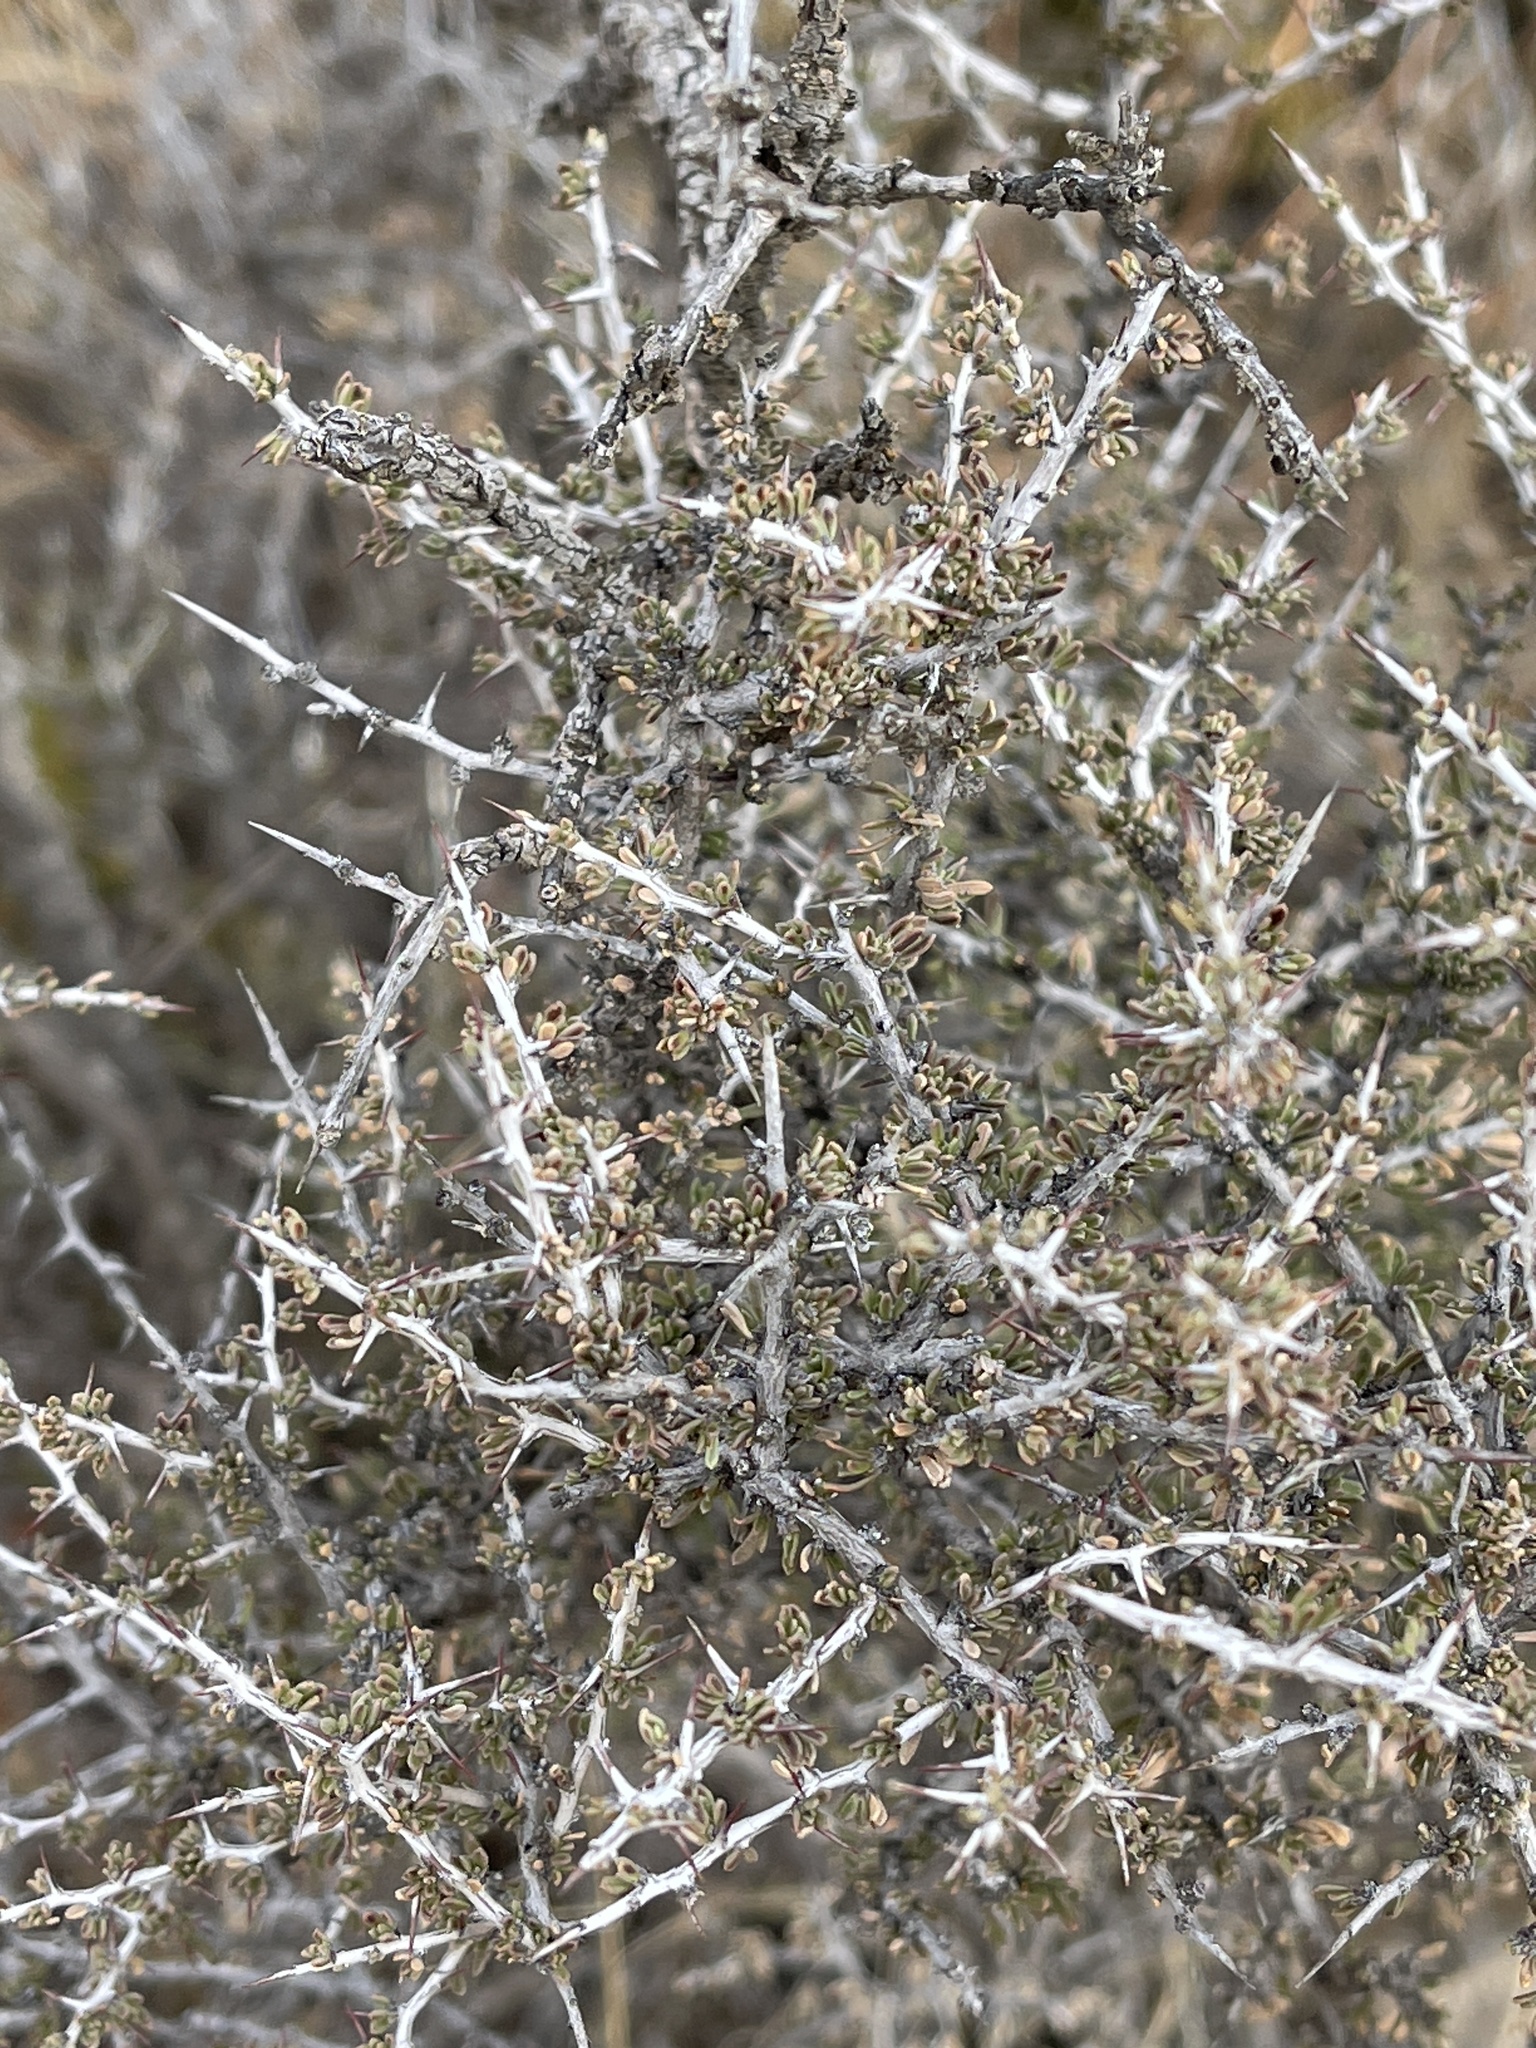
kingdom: Plantae
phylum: Tracheophyta
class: Magnoliopsida
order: Rosales
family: Rhamnaceae
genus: Condalia
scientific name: Condalia ericoides
